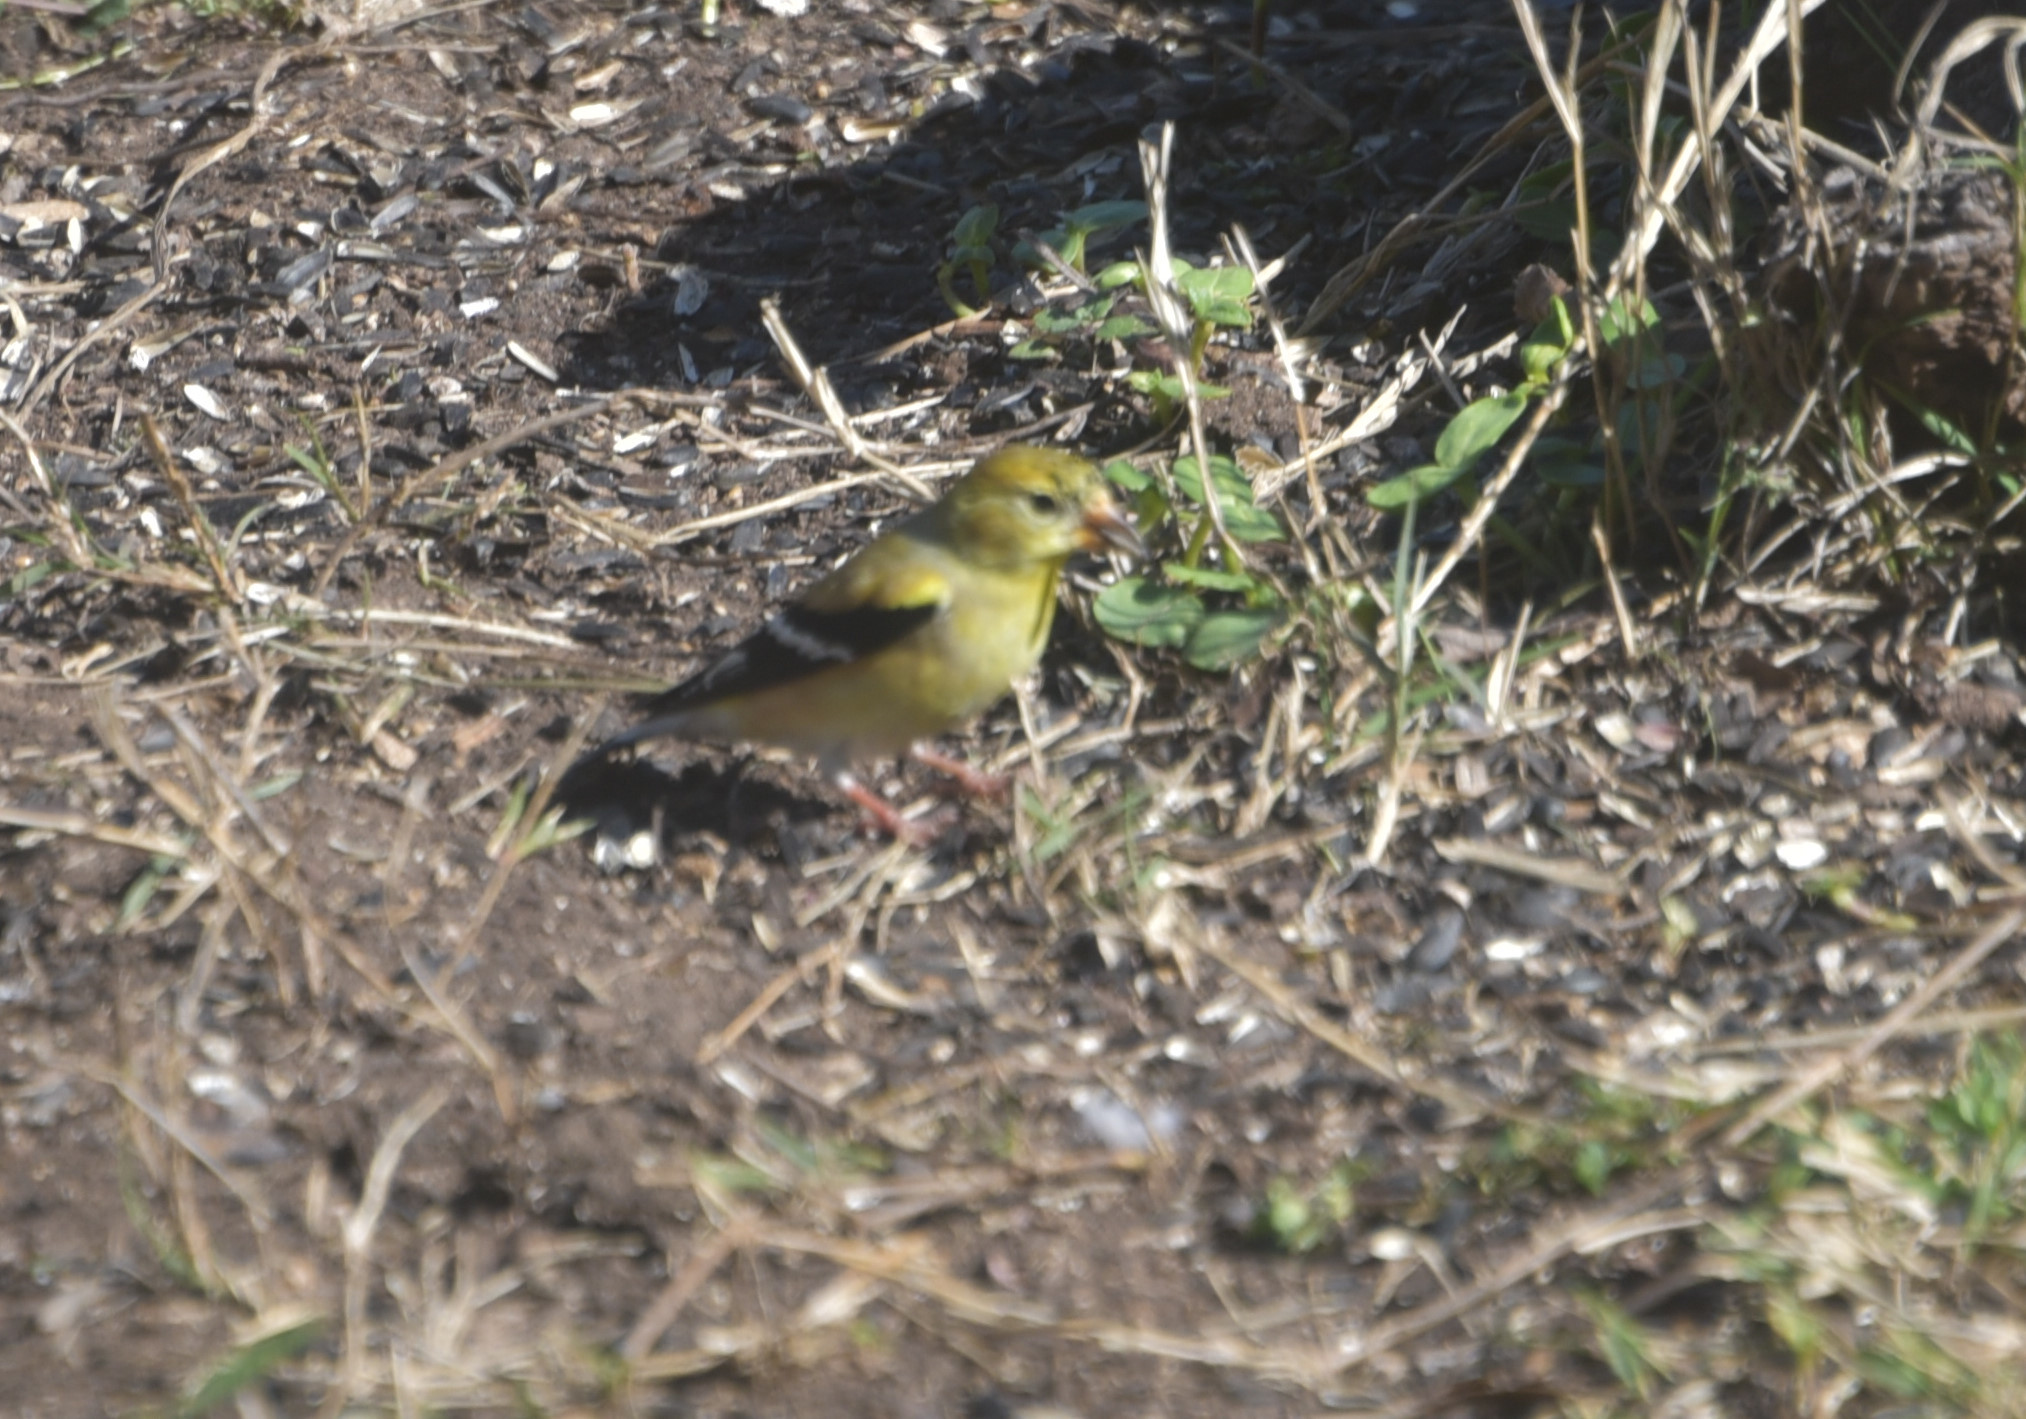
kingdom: Animalia
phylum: Chordata
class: Aves
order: Passeriformes
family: Fringillidae
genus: Spinus
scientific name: Spinus tristis
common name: American goldfinch
